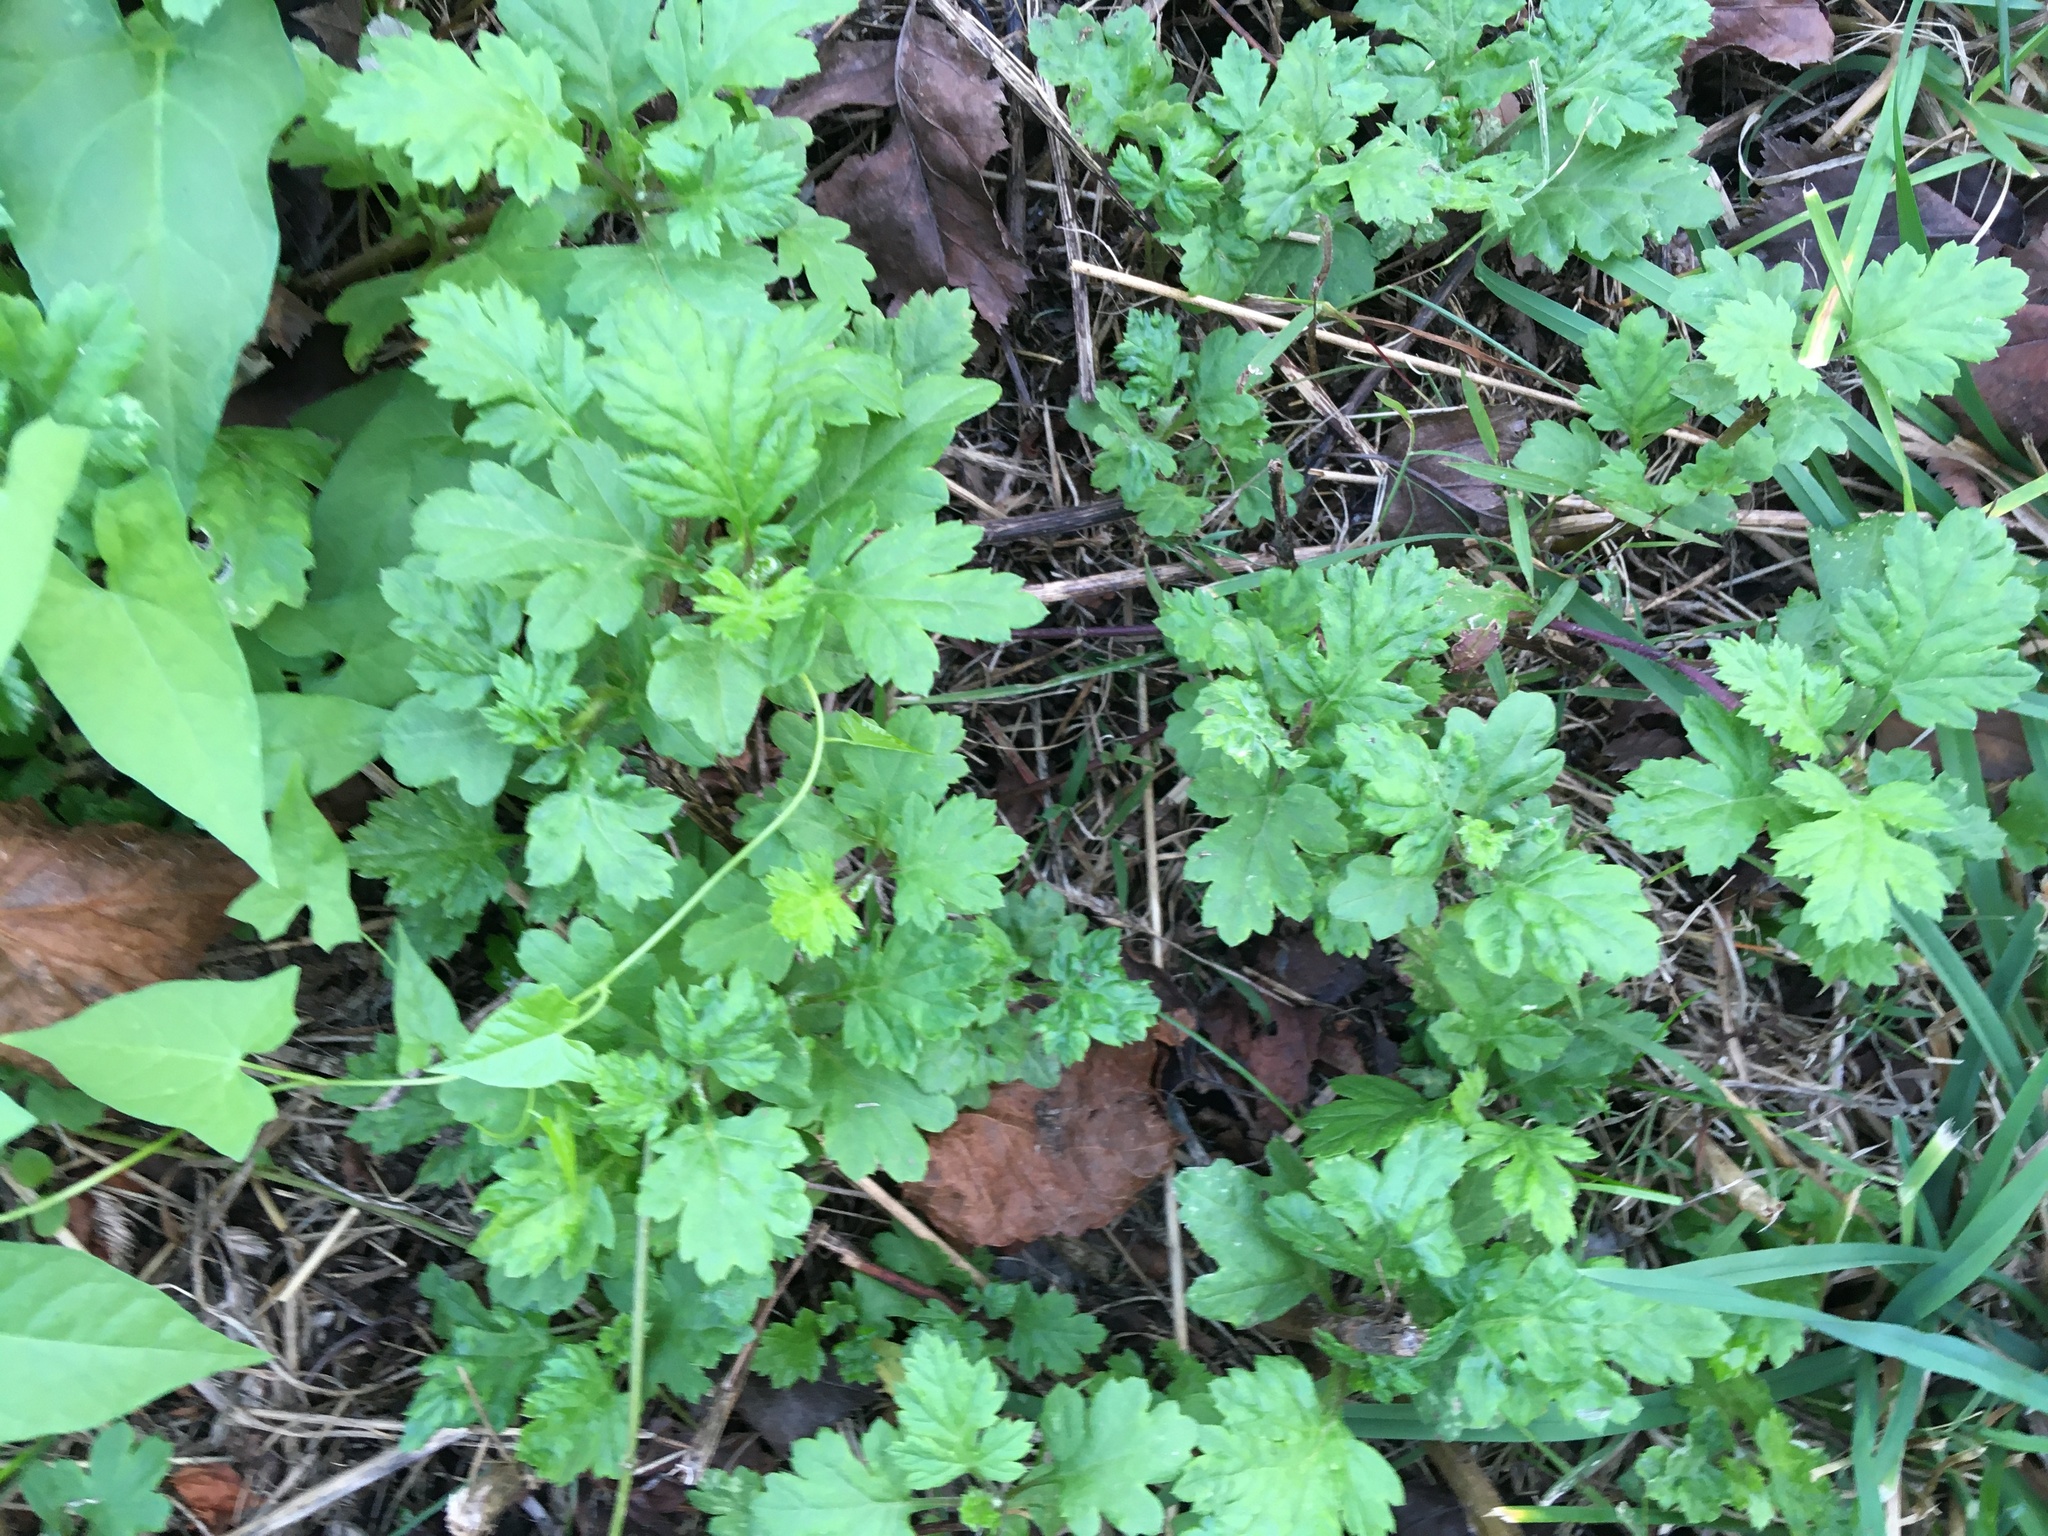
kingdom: Plantae
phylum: Tracheophyta
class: Magnoliopsida
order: Asterales
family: Asteraceae
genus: Artemisia
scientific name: Artemisia vulgaris
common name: Mugwort
